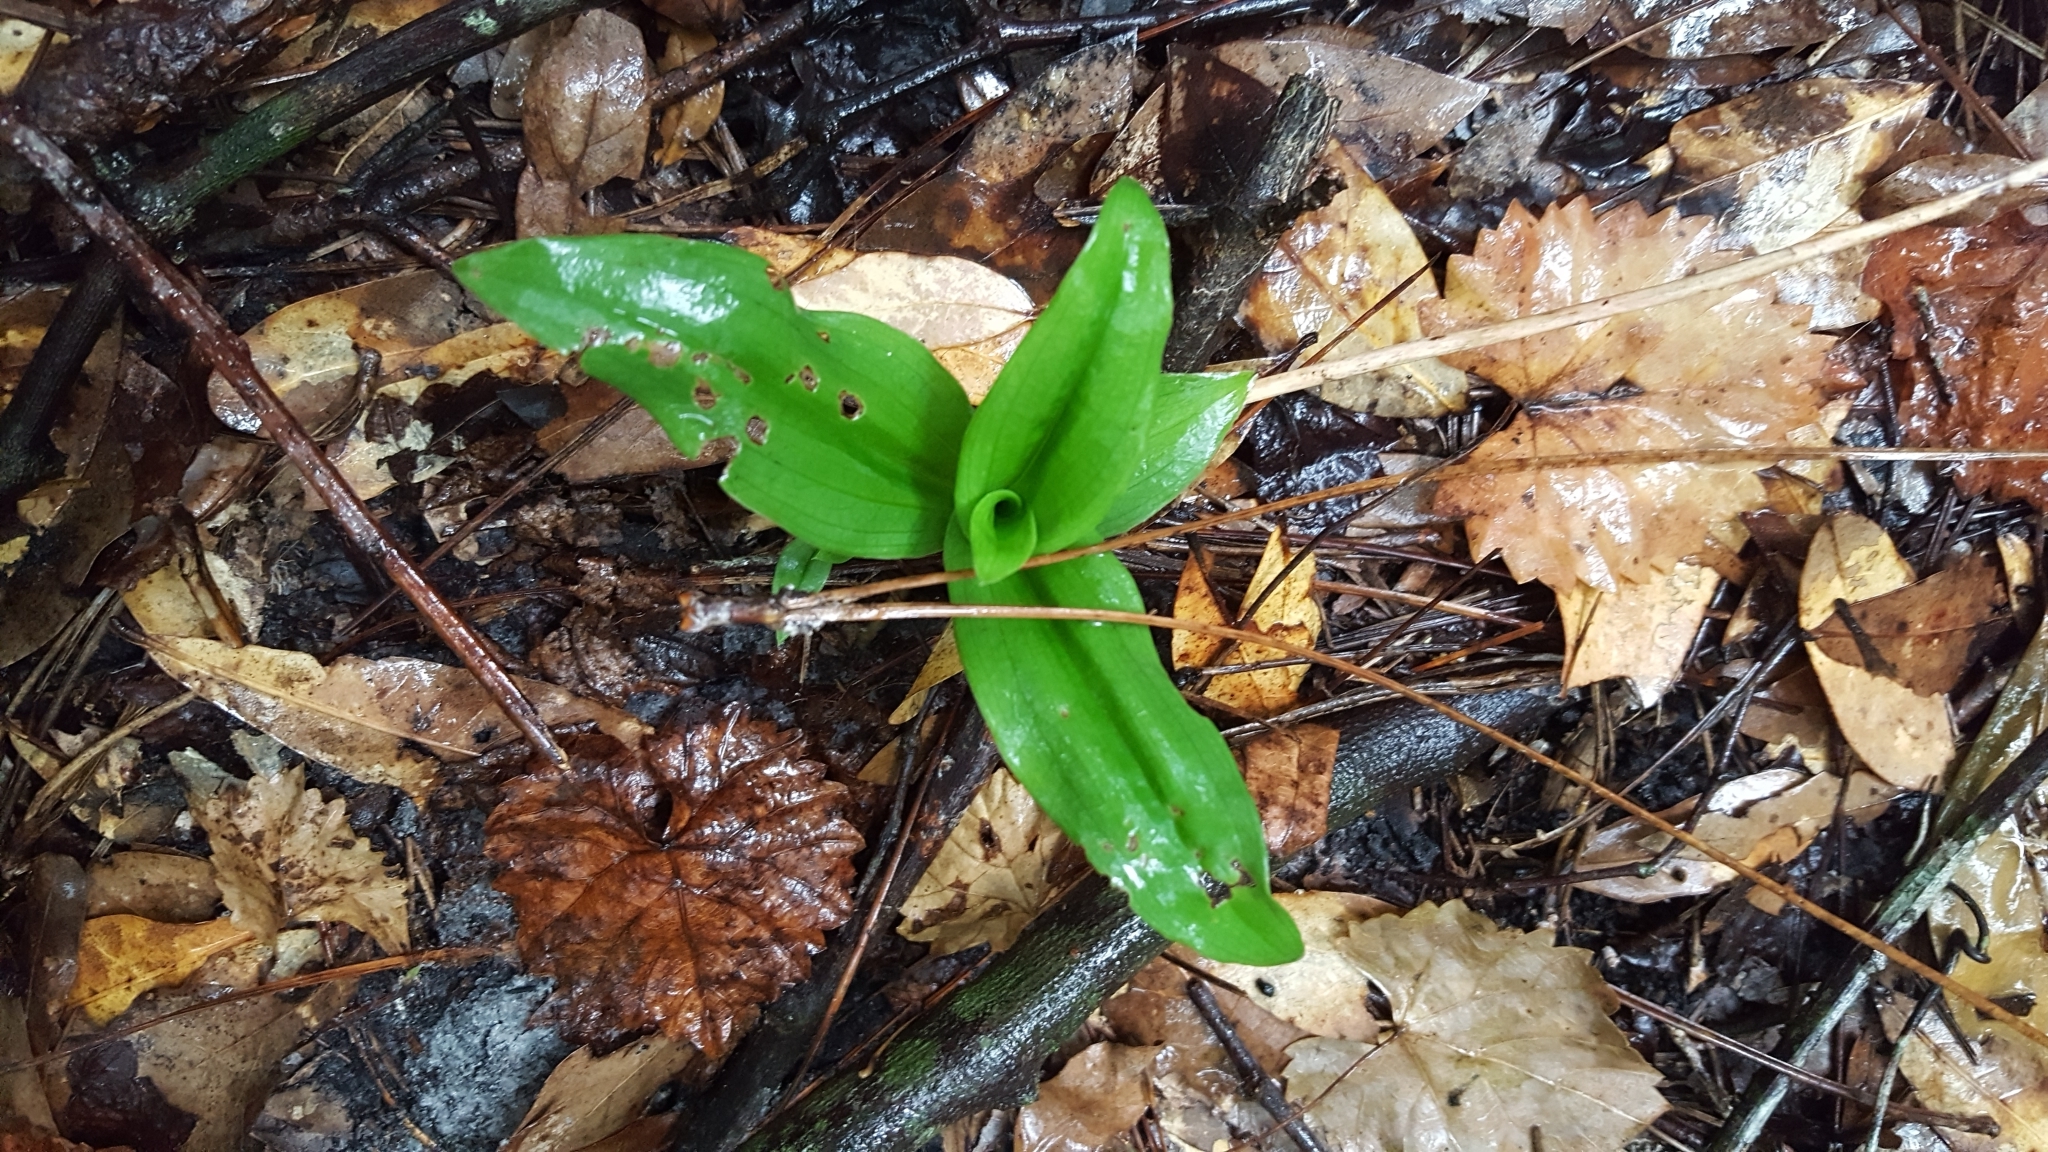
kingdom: Plantae
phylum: Tracheophyta
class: Liliopsida
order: Asparagales
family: Orchidaceae
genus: Habenaria
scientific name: Habenaria floribunda
